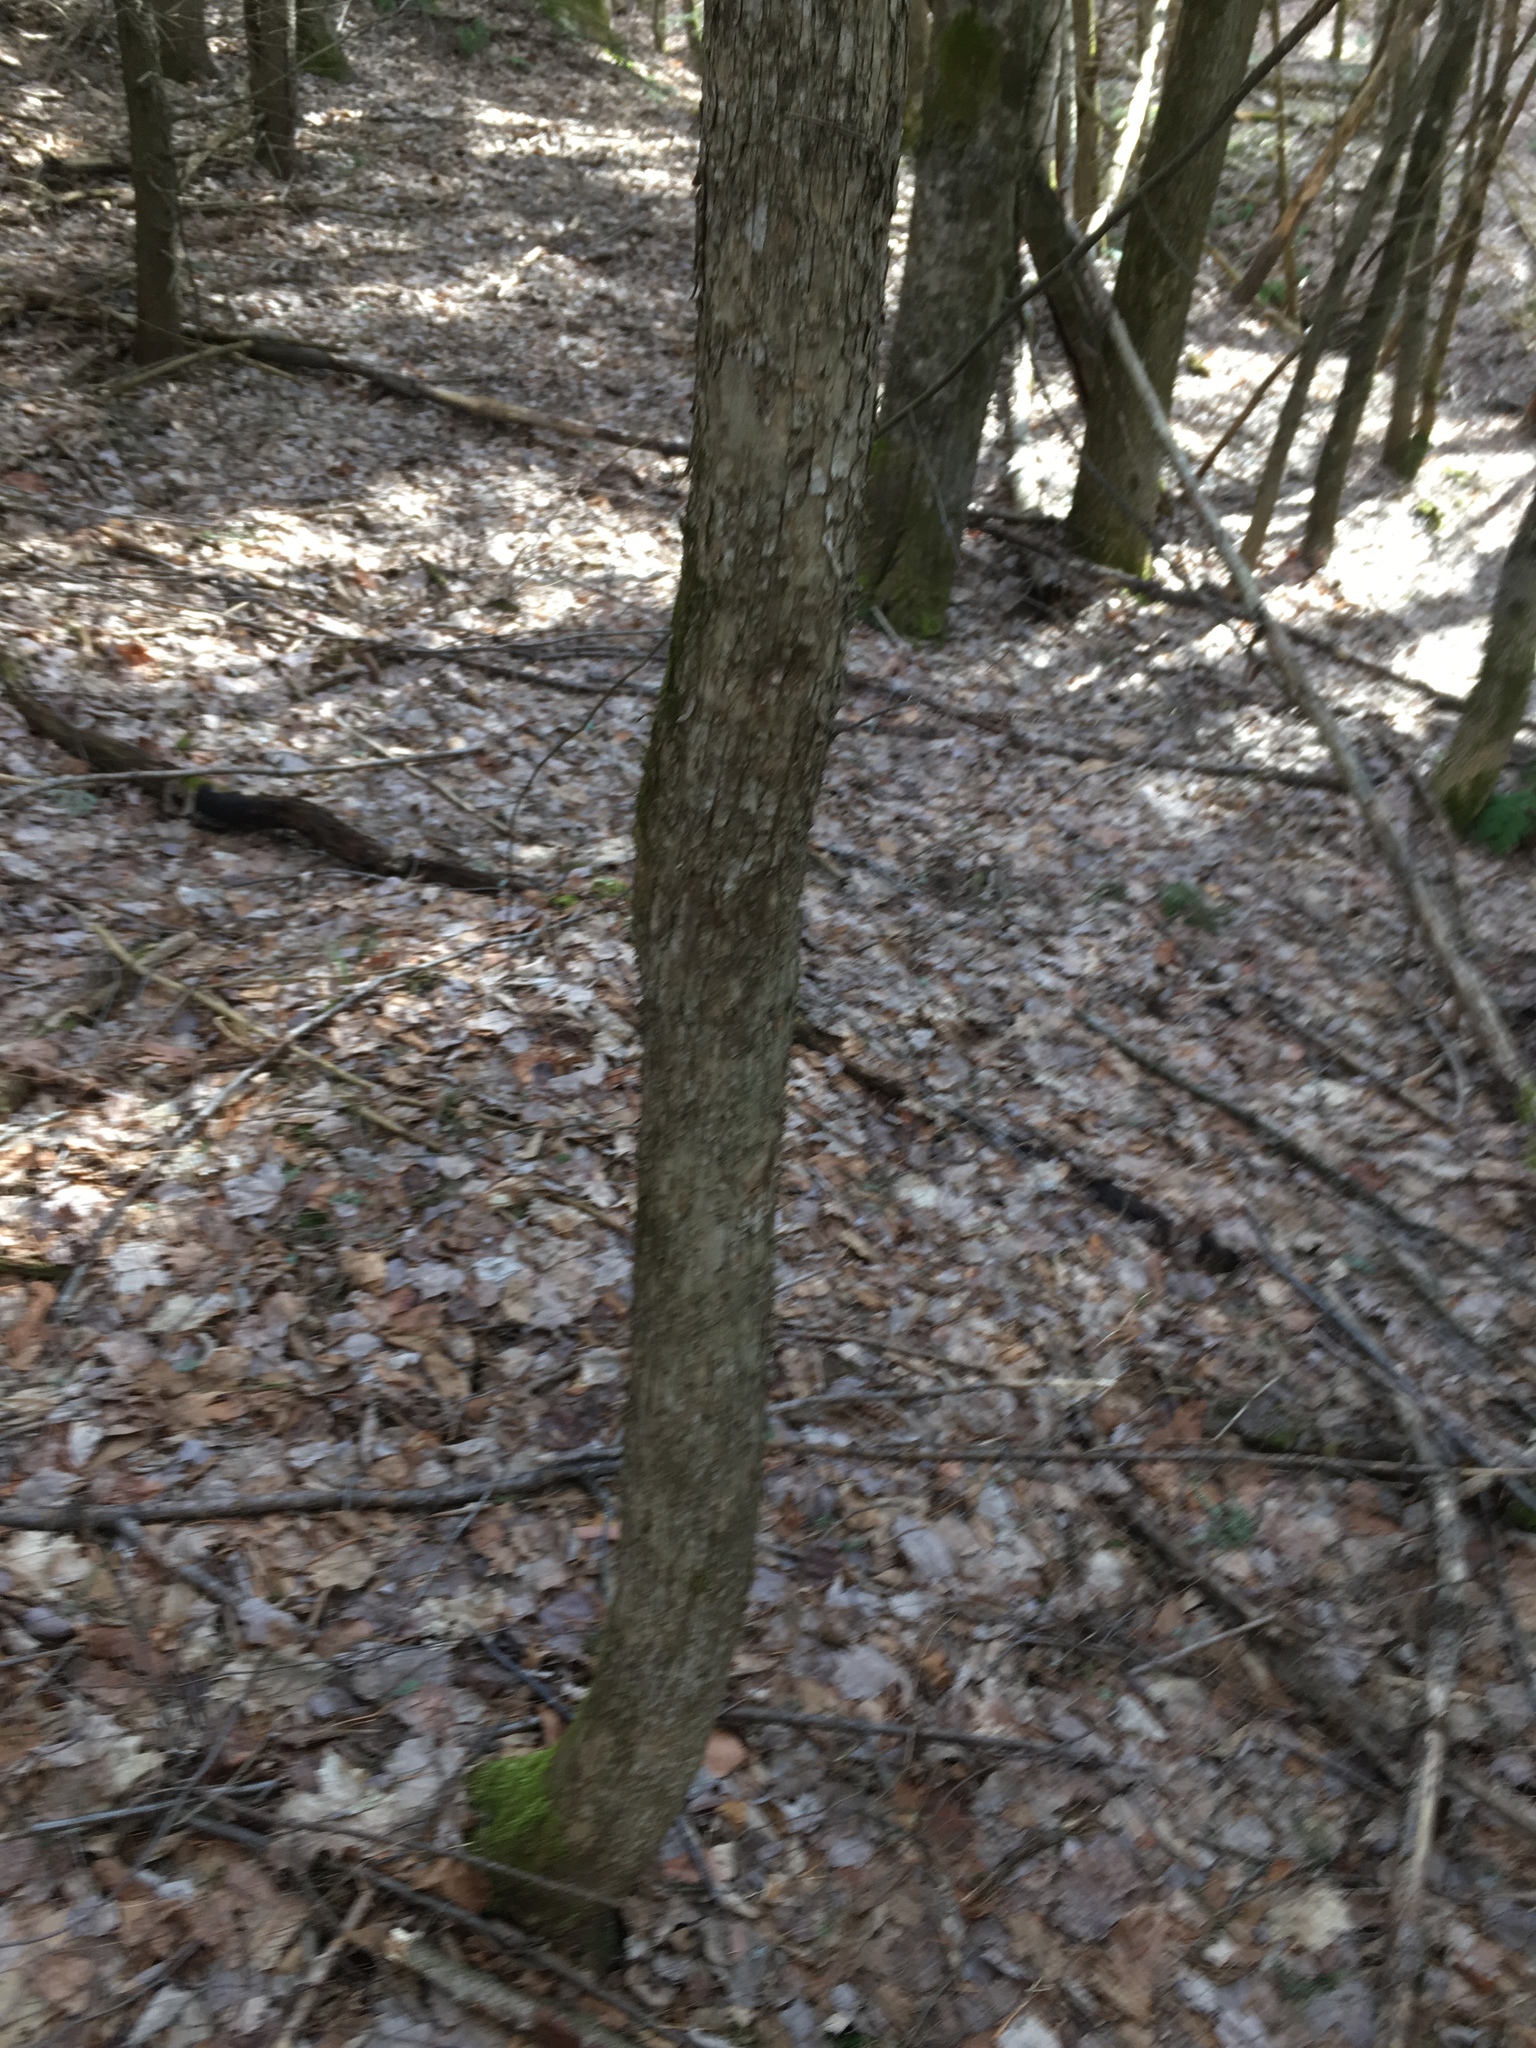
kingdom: Plantae
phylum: Tracheophyta
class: Magnoliopsida
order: Fagales
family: Betulaceae
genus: Ostrya
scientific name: Ostrya virginiana
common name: Ironwood
